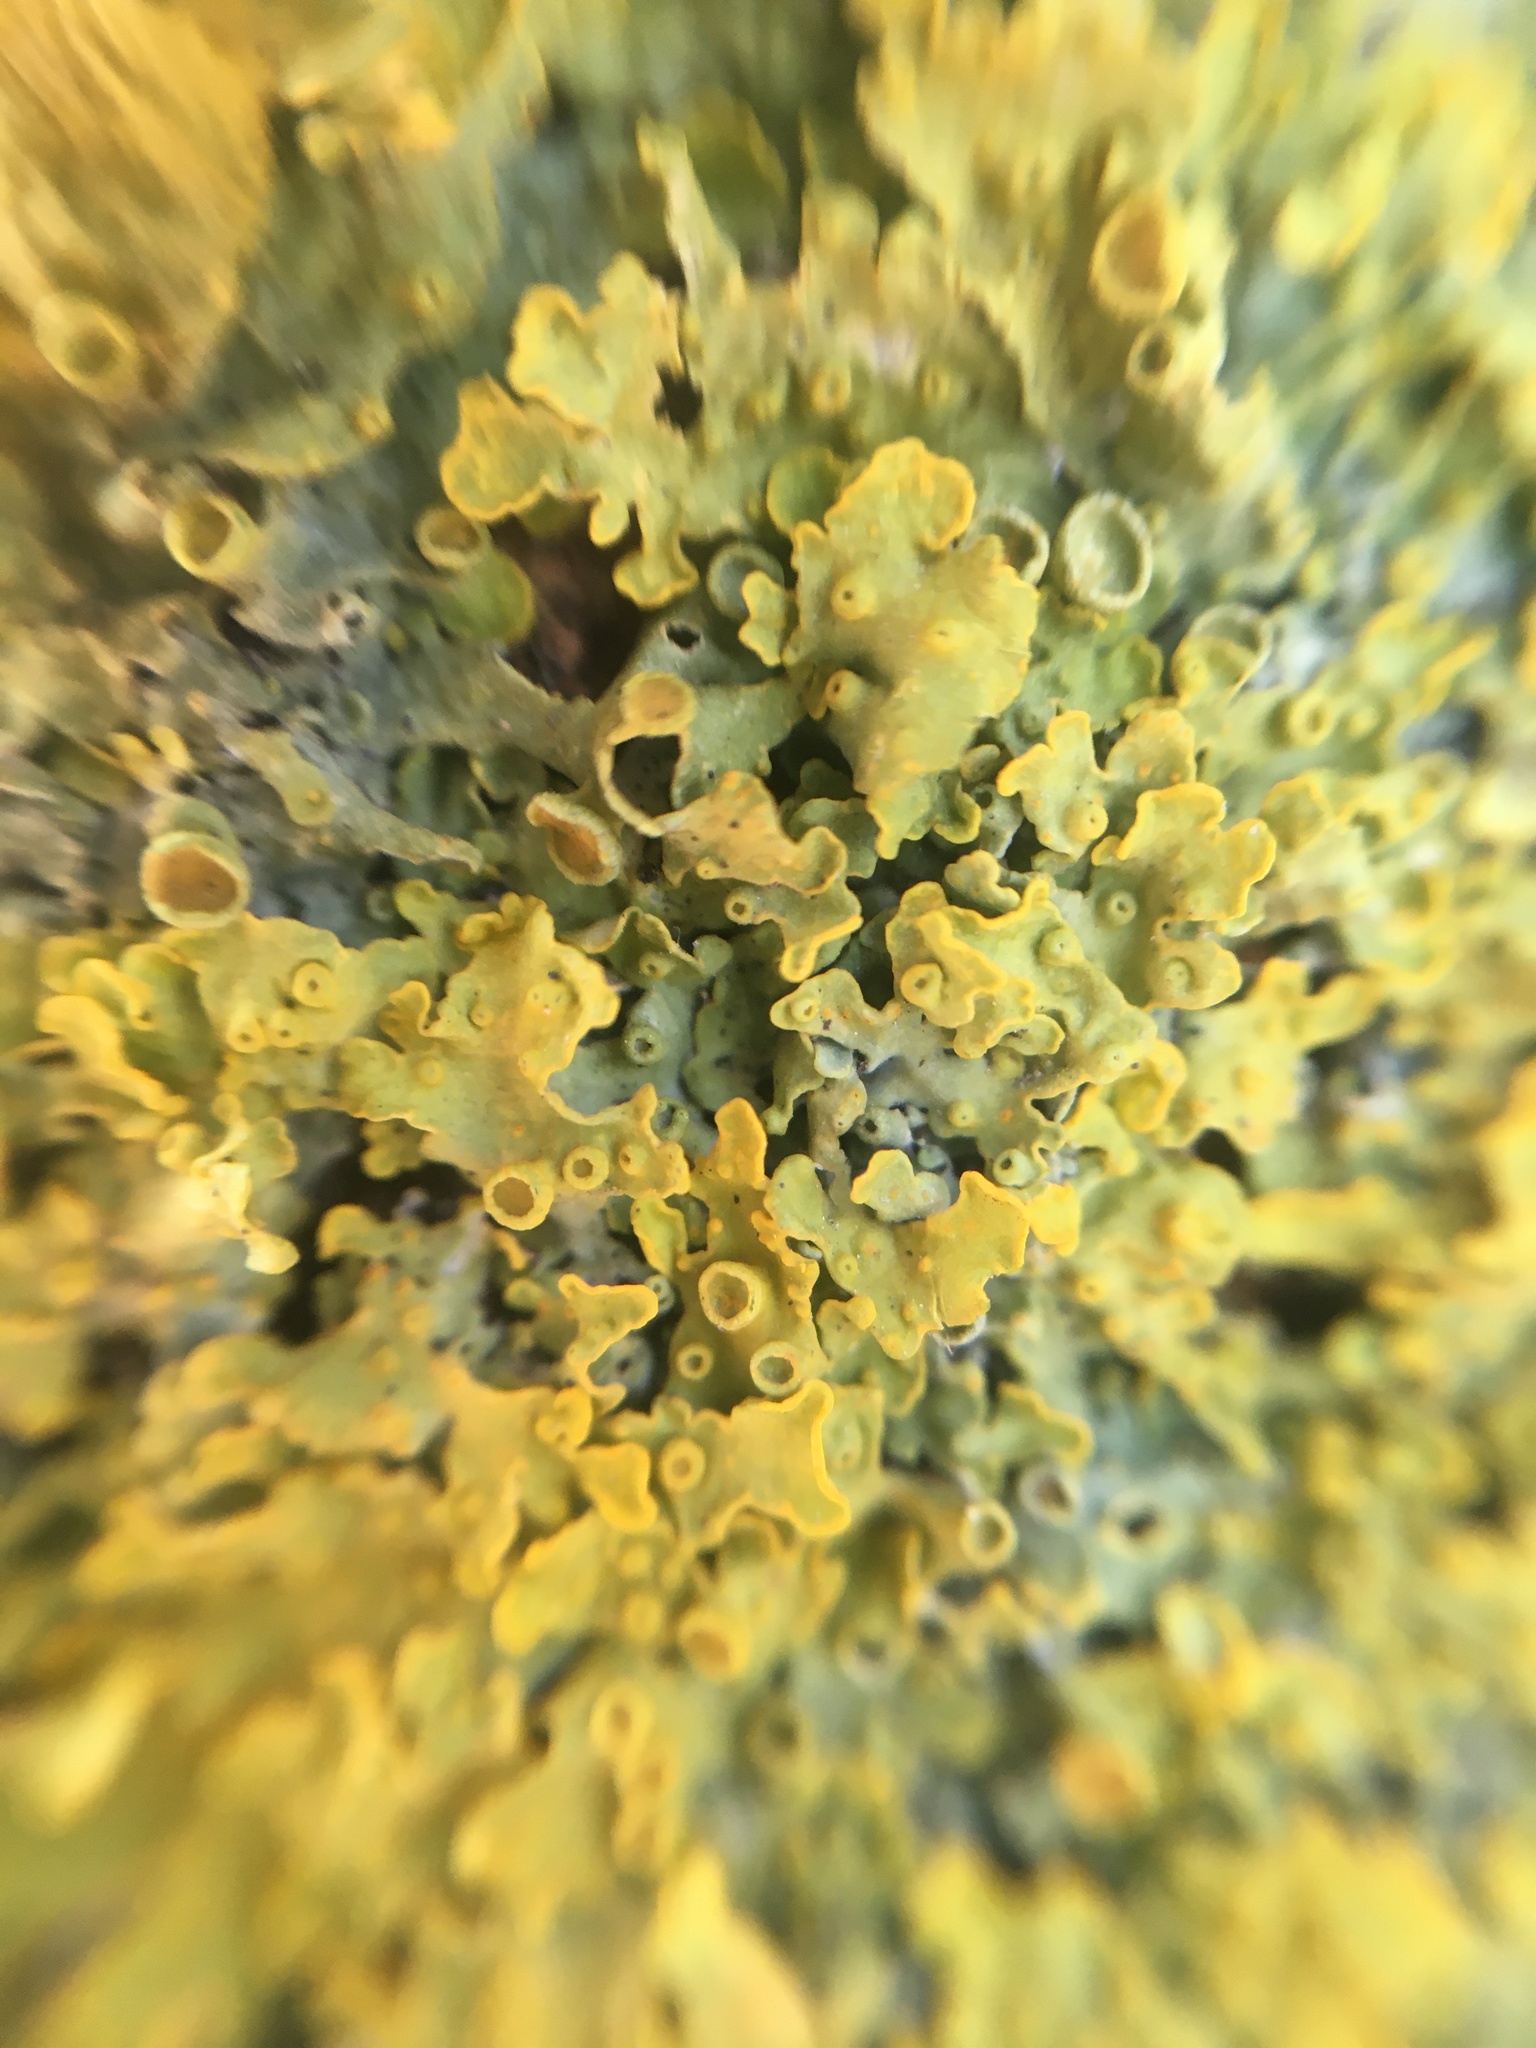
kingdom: Fungi
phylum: Ascomycota
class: Lecanoromycetes
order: Teloschistales
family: Teloschistaceae
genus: Xanthoria
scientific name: Xanthoria parietina
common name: Common orange lichen
